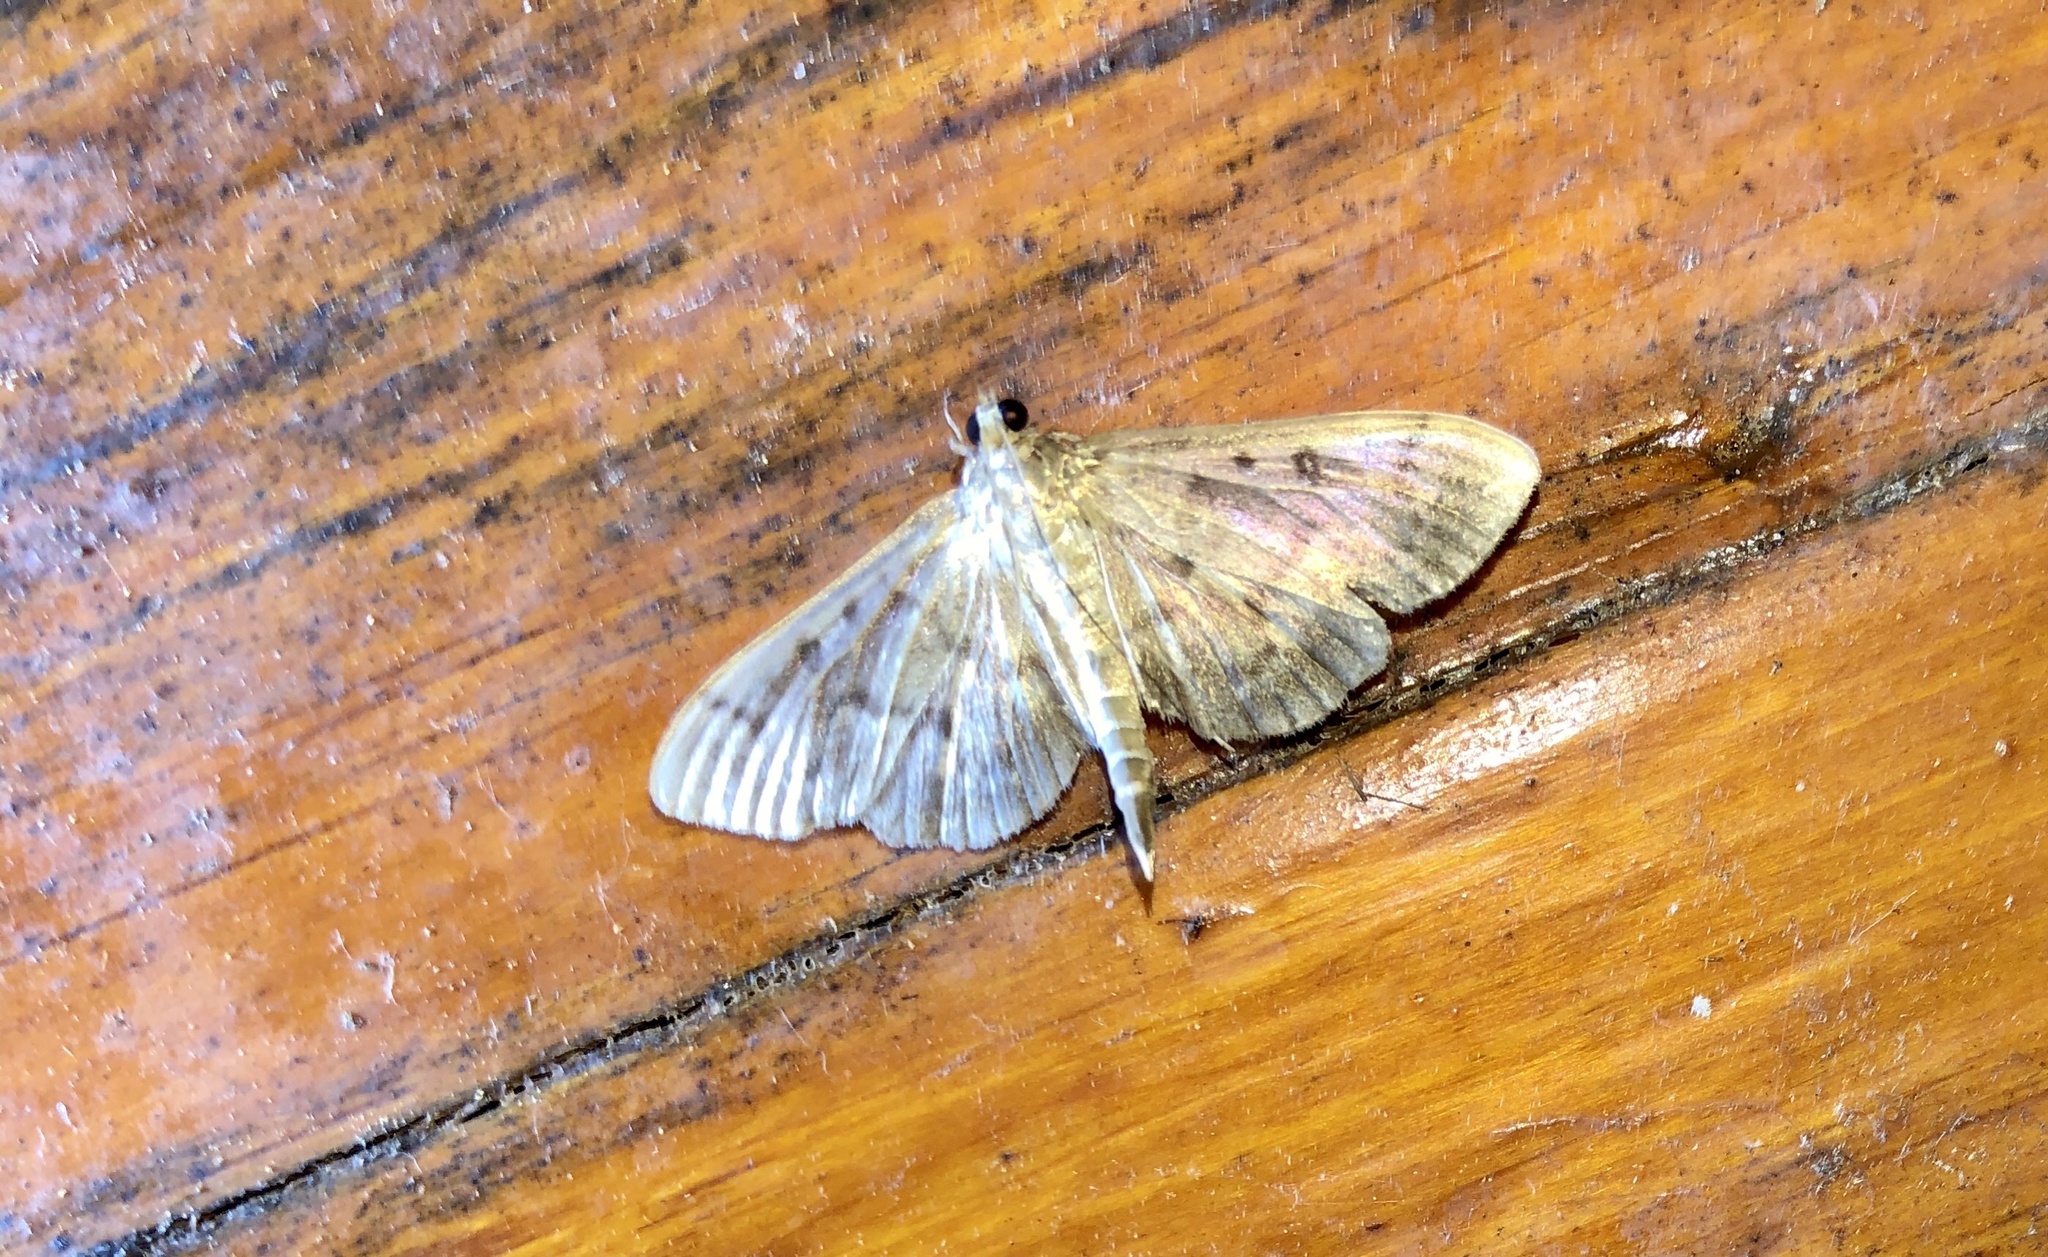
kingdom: Animalia
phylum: Arthropoda
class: Insecta
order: Lepidoptera
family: Crambidae
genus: Herpetogramma
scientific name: Herpetogramma aeglealis
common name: Serpentine webworm moth
